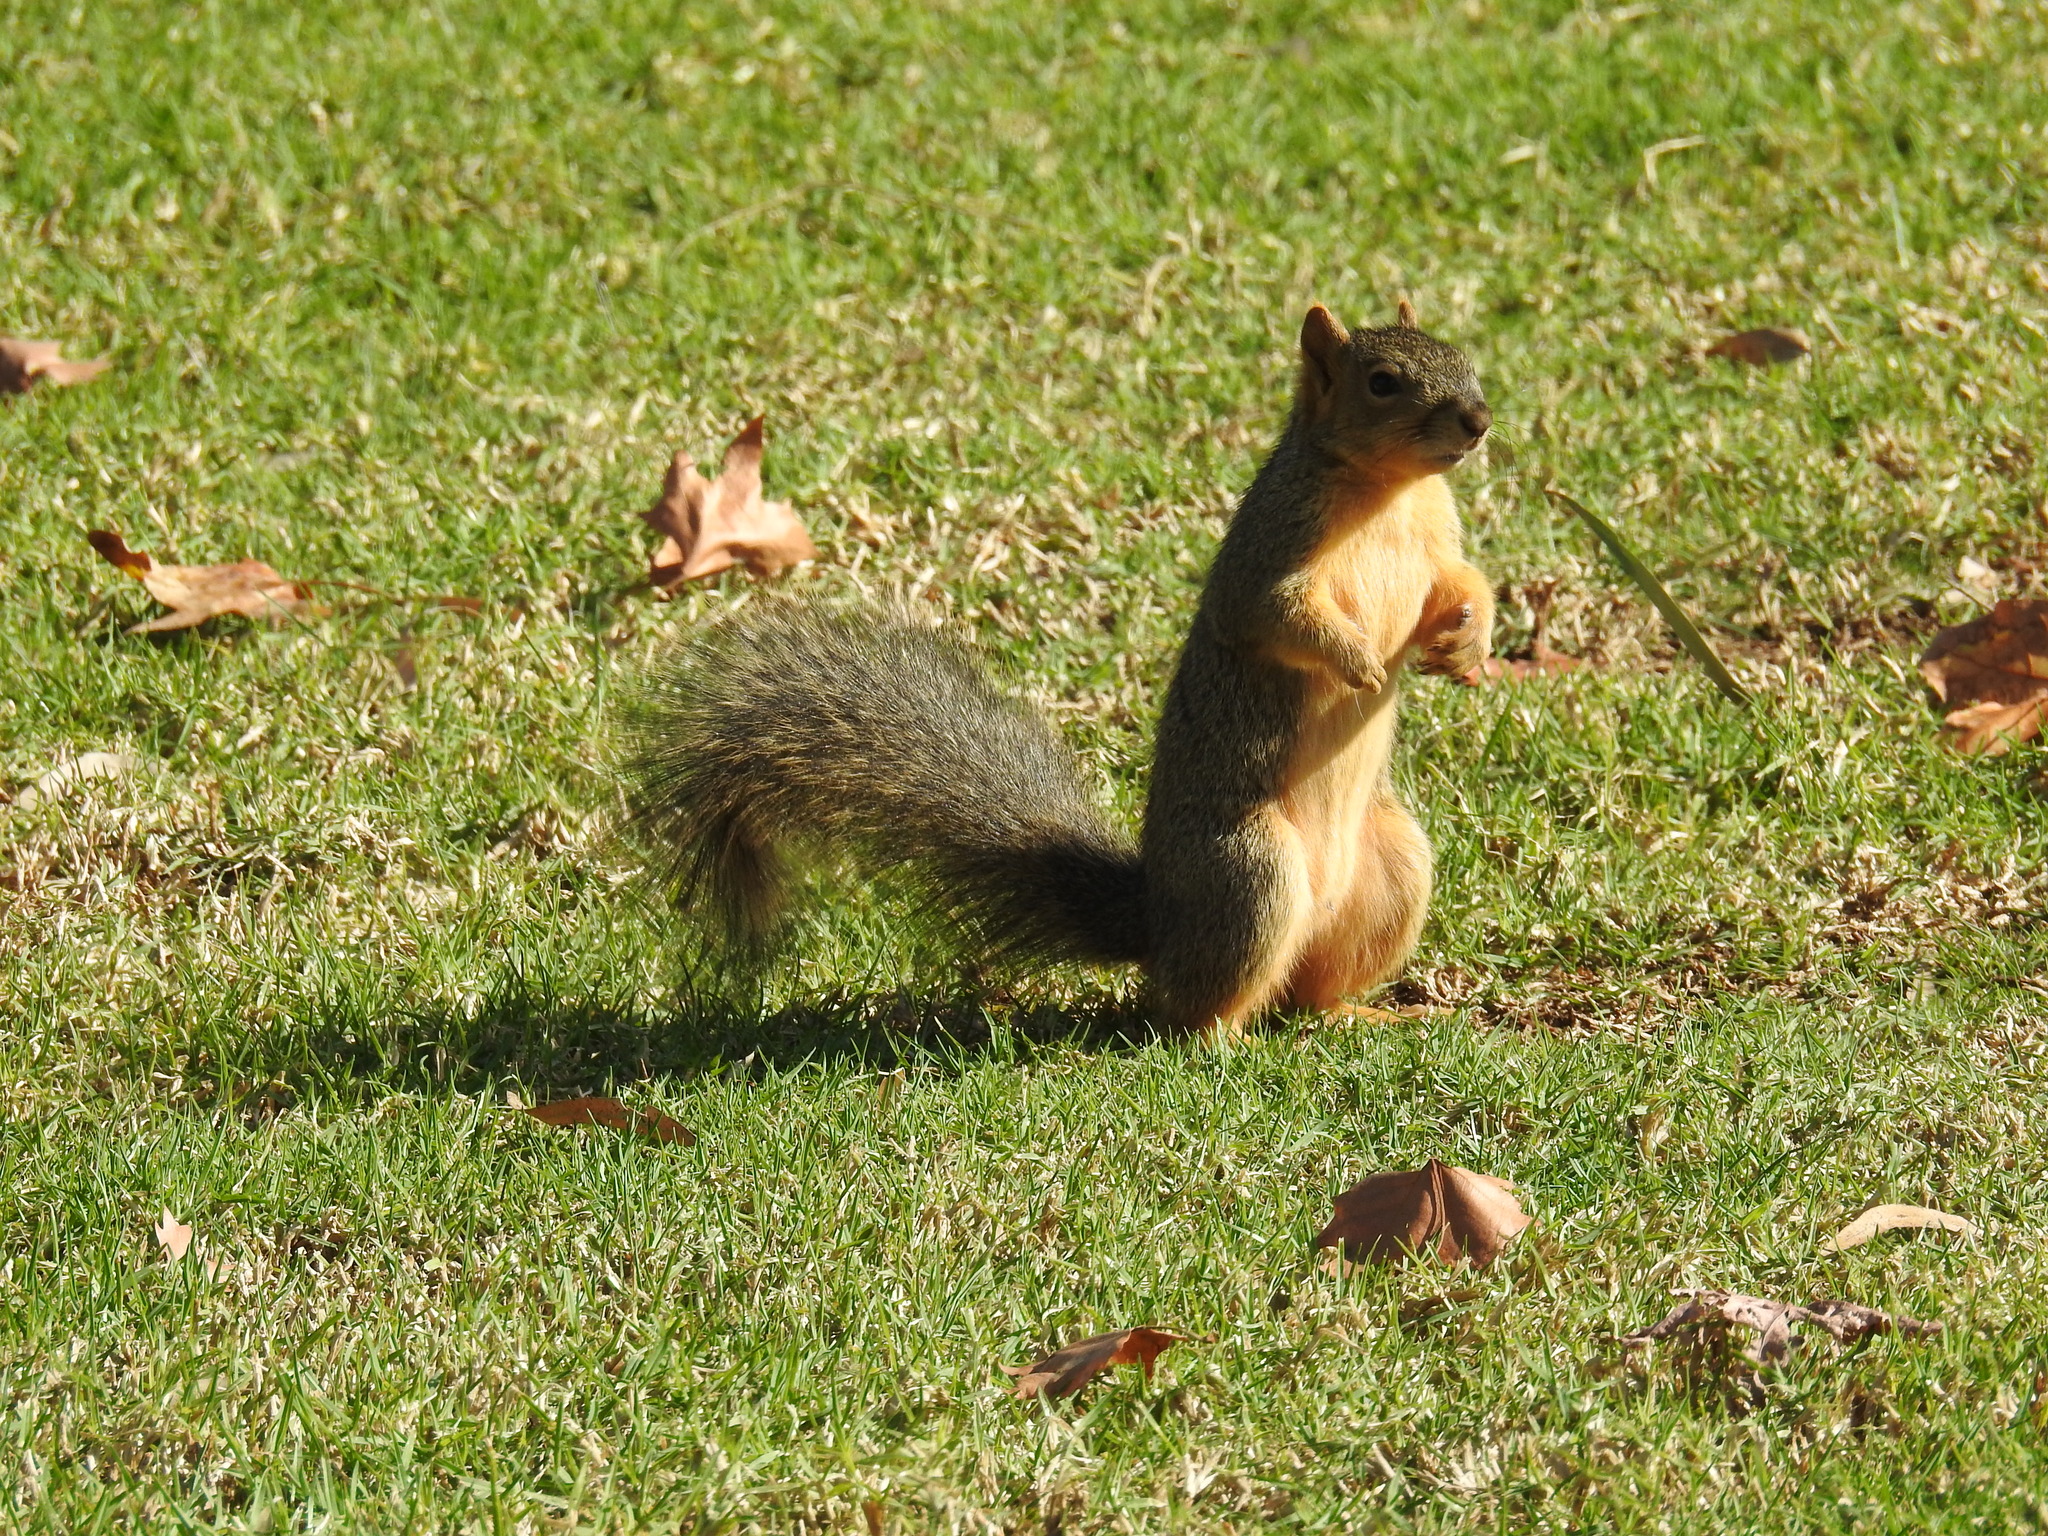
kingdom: Animalia
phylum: Chordata
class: Mammalia
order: Rodentia
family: Sciuridae
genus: Sciurus
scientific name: Sciurus niger
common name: Fox squirrel
